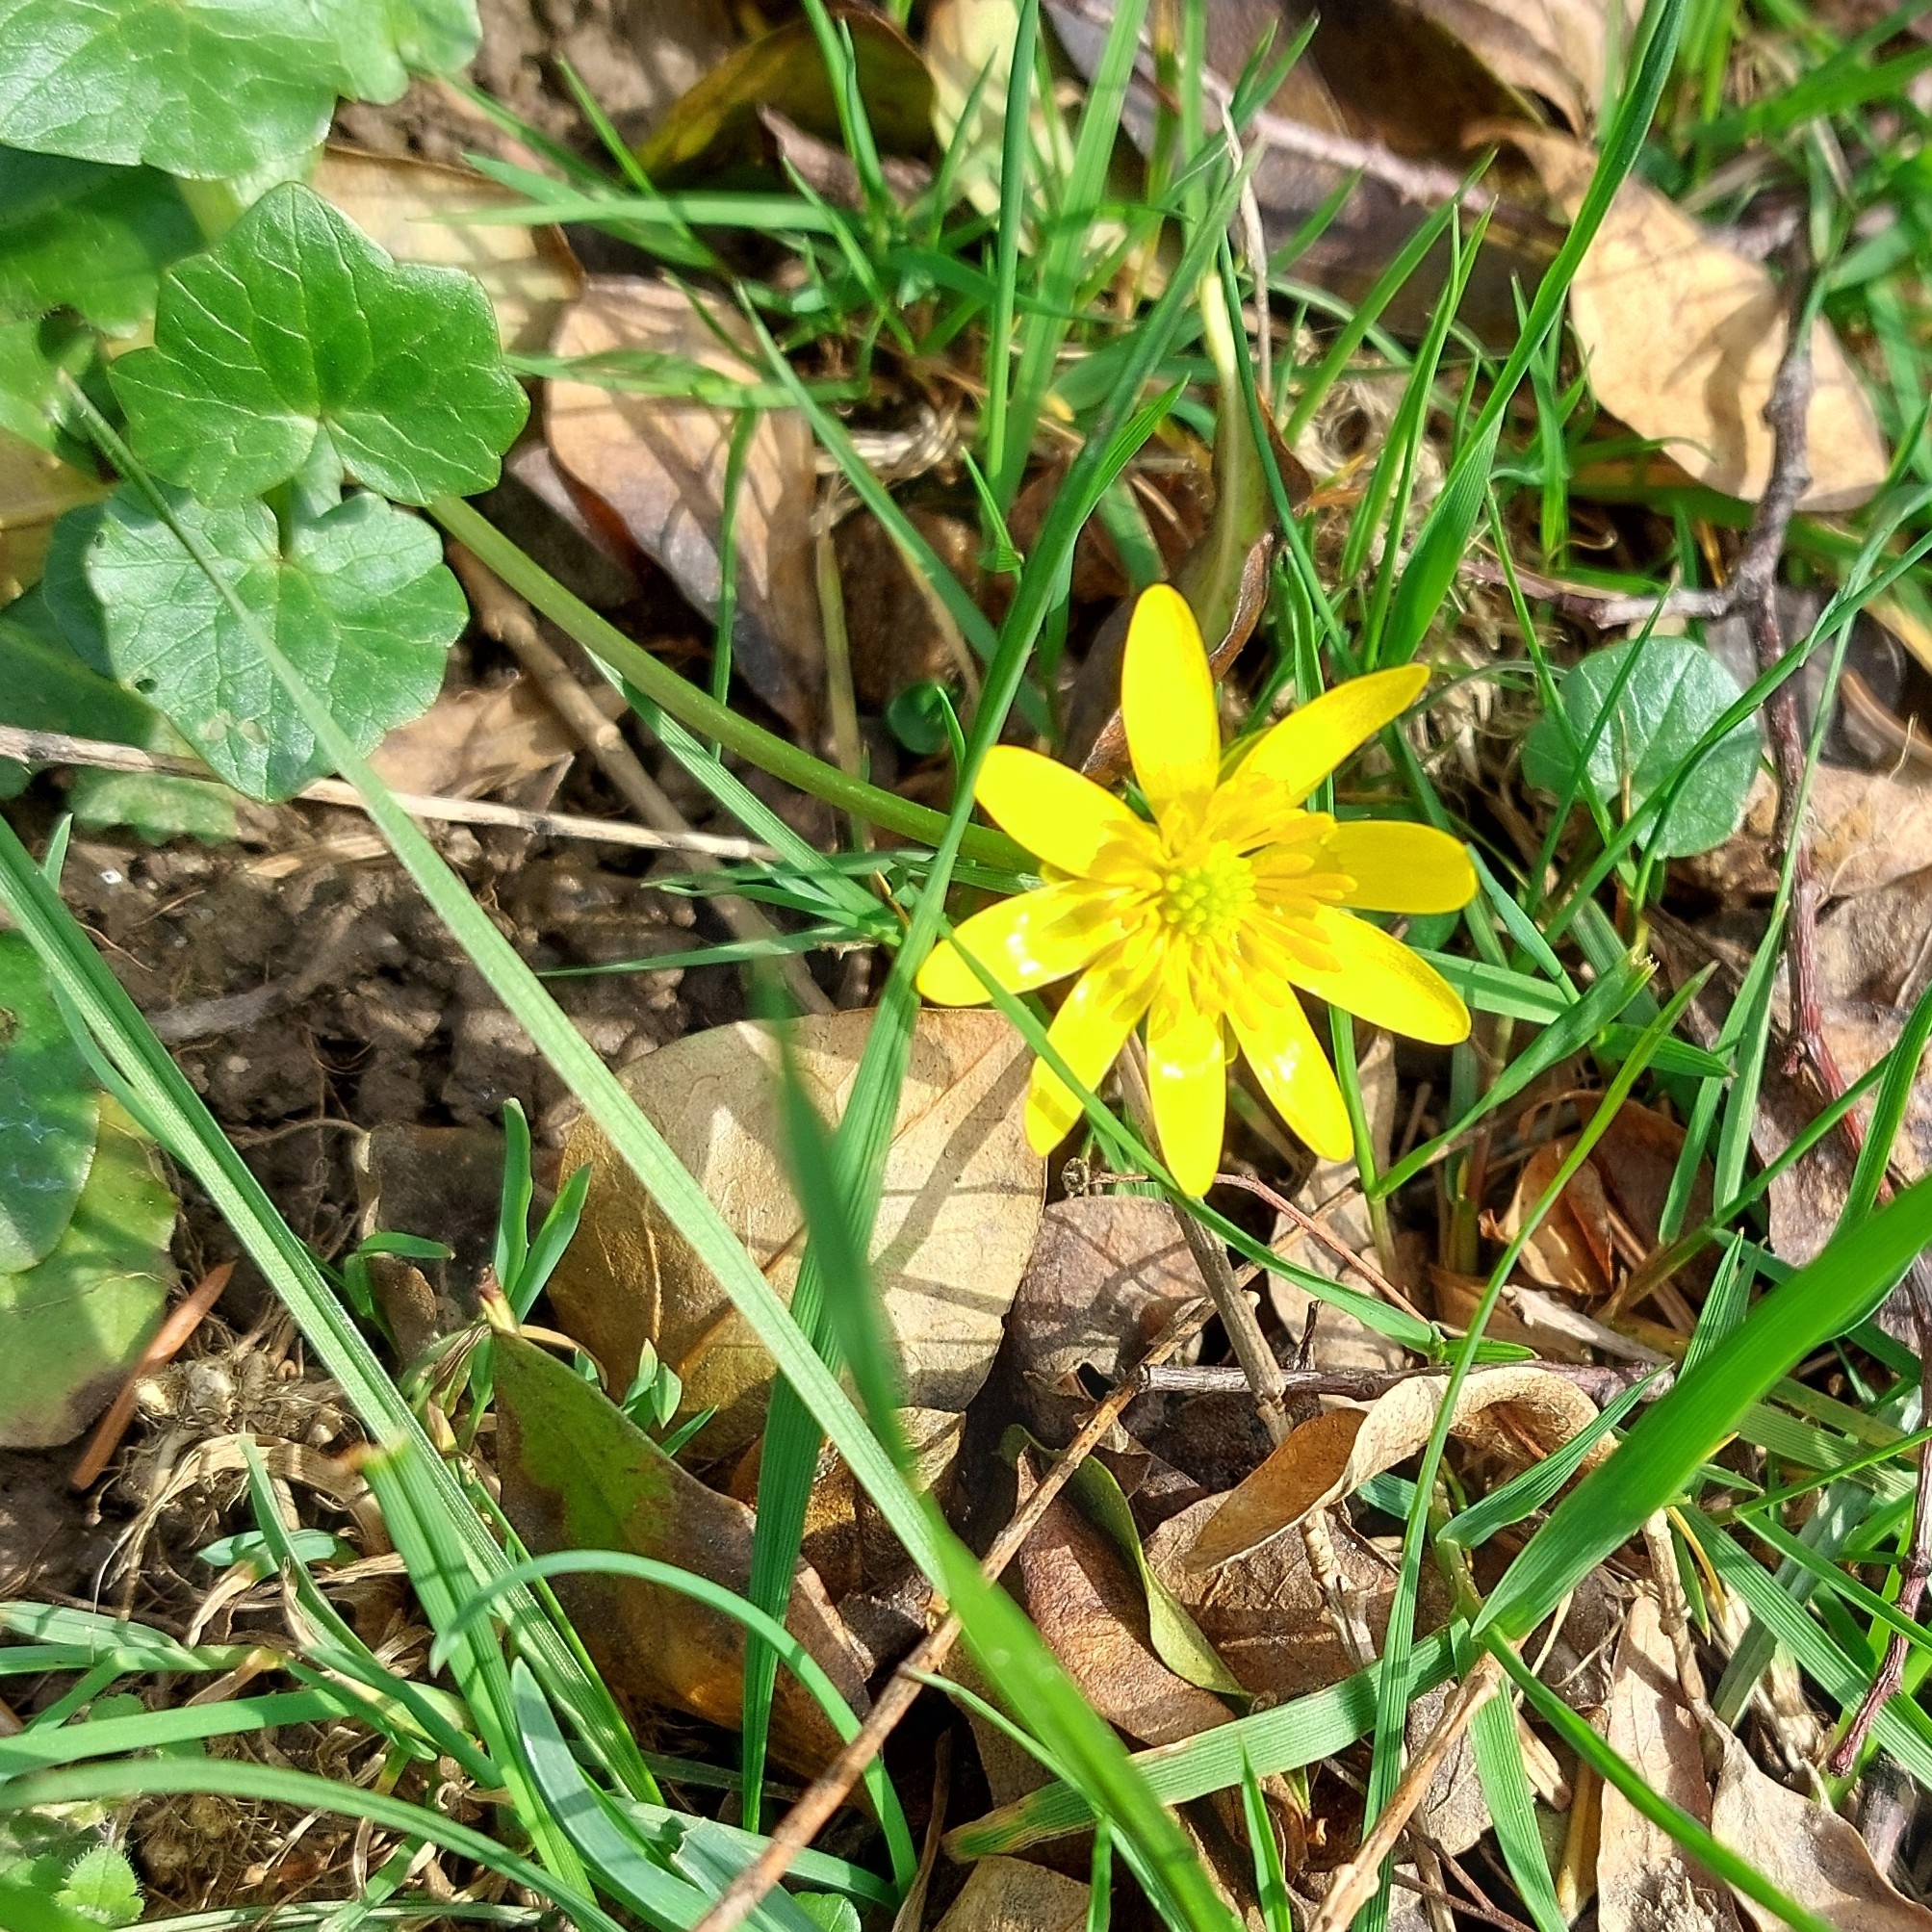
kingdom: Plantae
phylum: Tracheophyta
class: Magnoliopsida
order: Ranunculales
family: Ranunculaceae
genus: Ficaria
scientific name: Ficaria verna
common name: Lesser celandine
